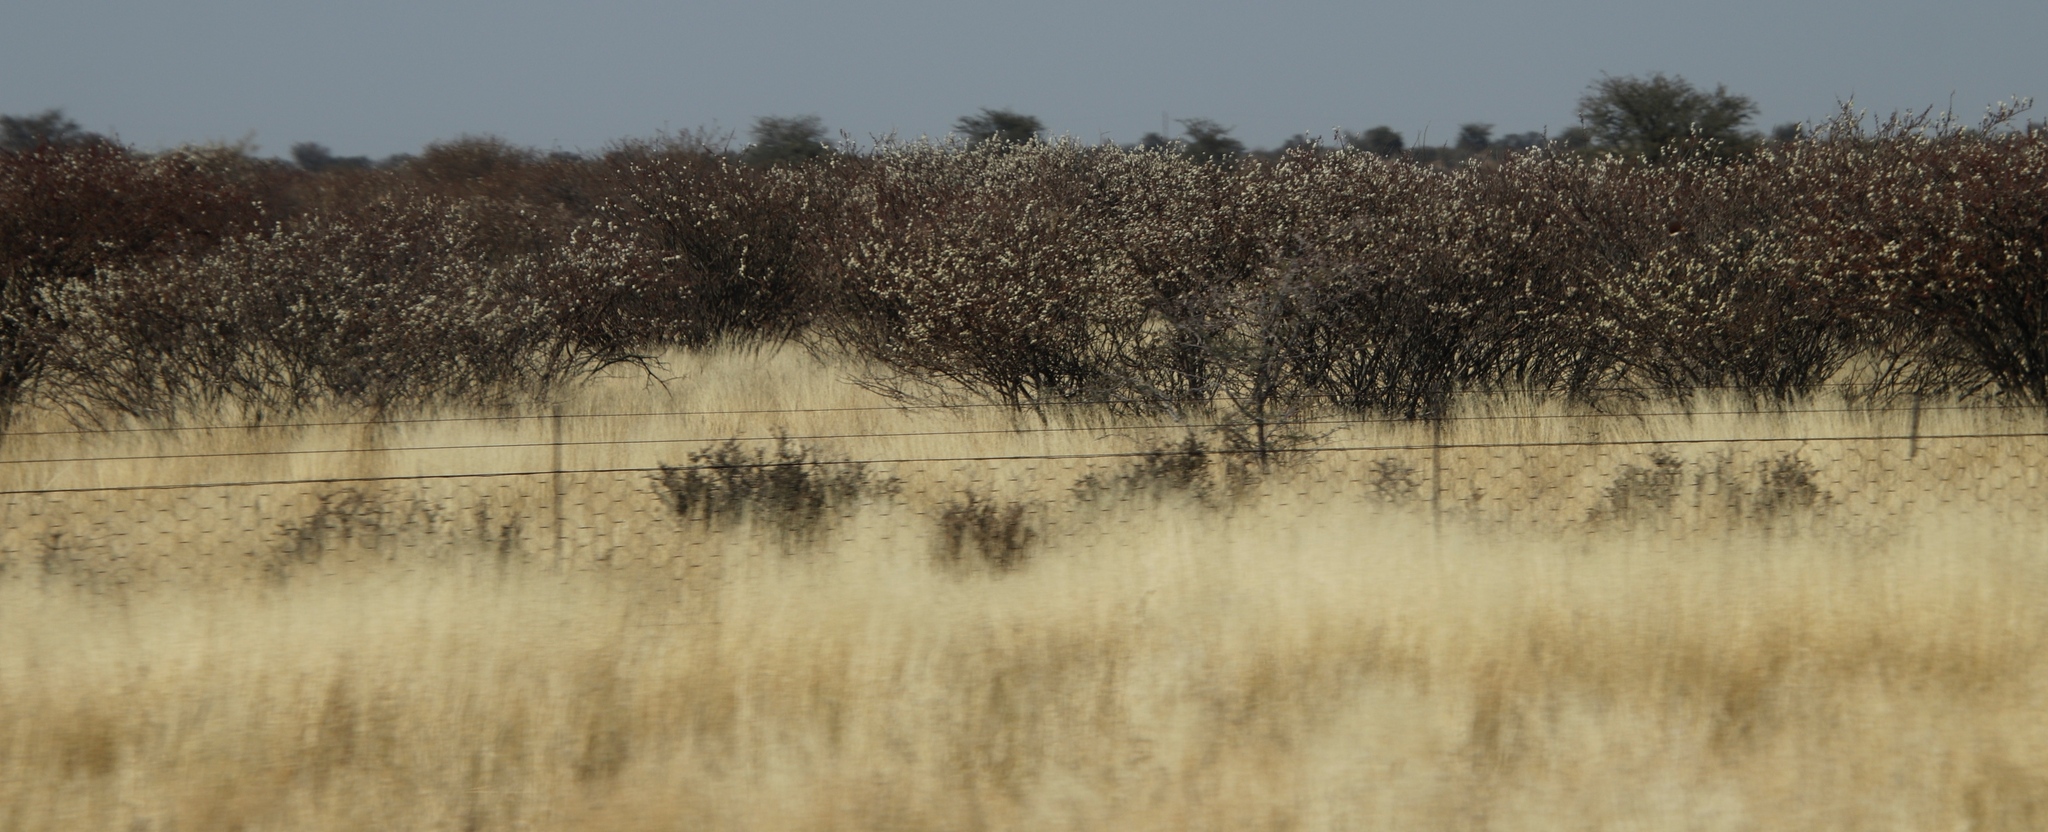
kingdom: Plantae
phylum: Tracheophyta
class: Magnoliopsida
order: Fabales
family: Fabaceae
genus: Senegalia
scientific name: Senegalia mellifera
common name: Hookthorn
